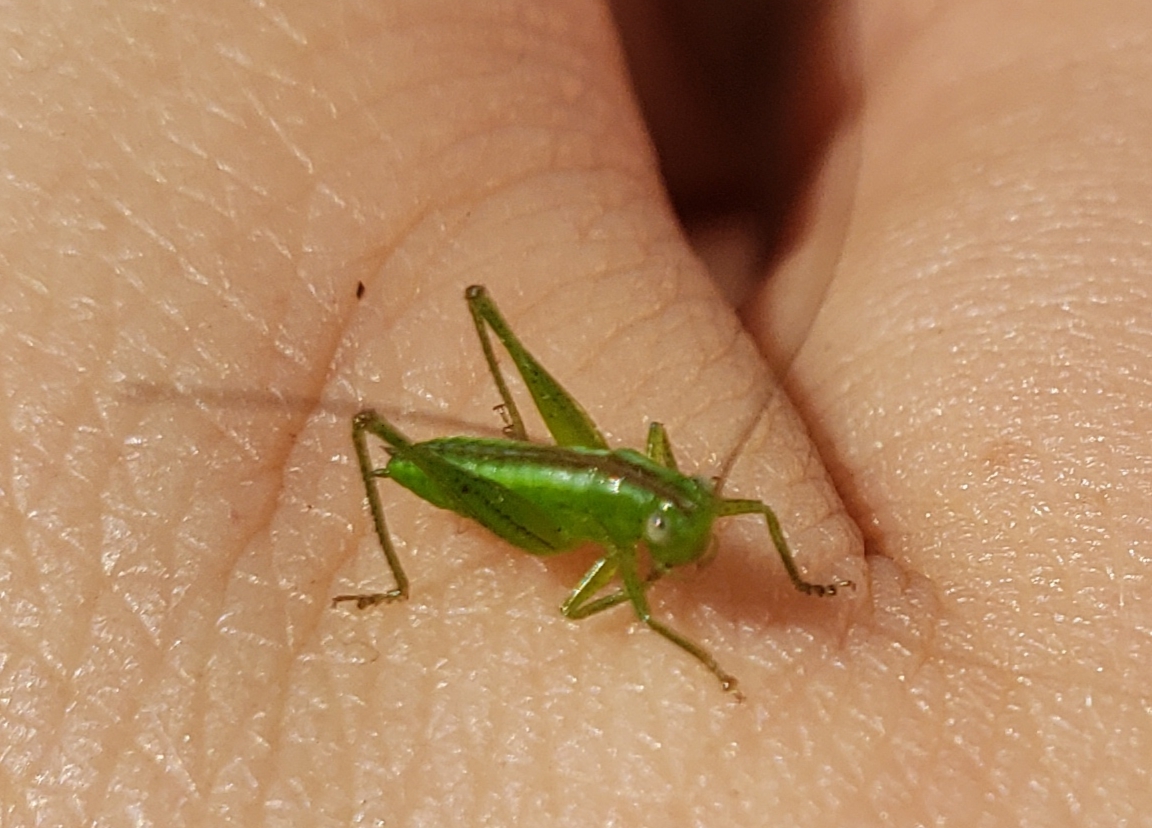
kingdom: Animalia
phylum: Arthropoda
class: Insecta
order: Orthoptera
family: Tettigoniidae
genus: Conocephalus
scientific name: Conocephalus fasciatus
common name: Slender meadow katydid
